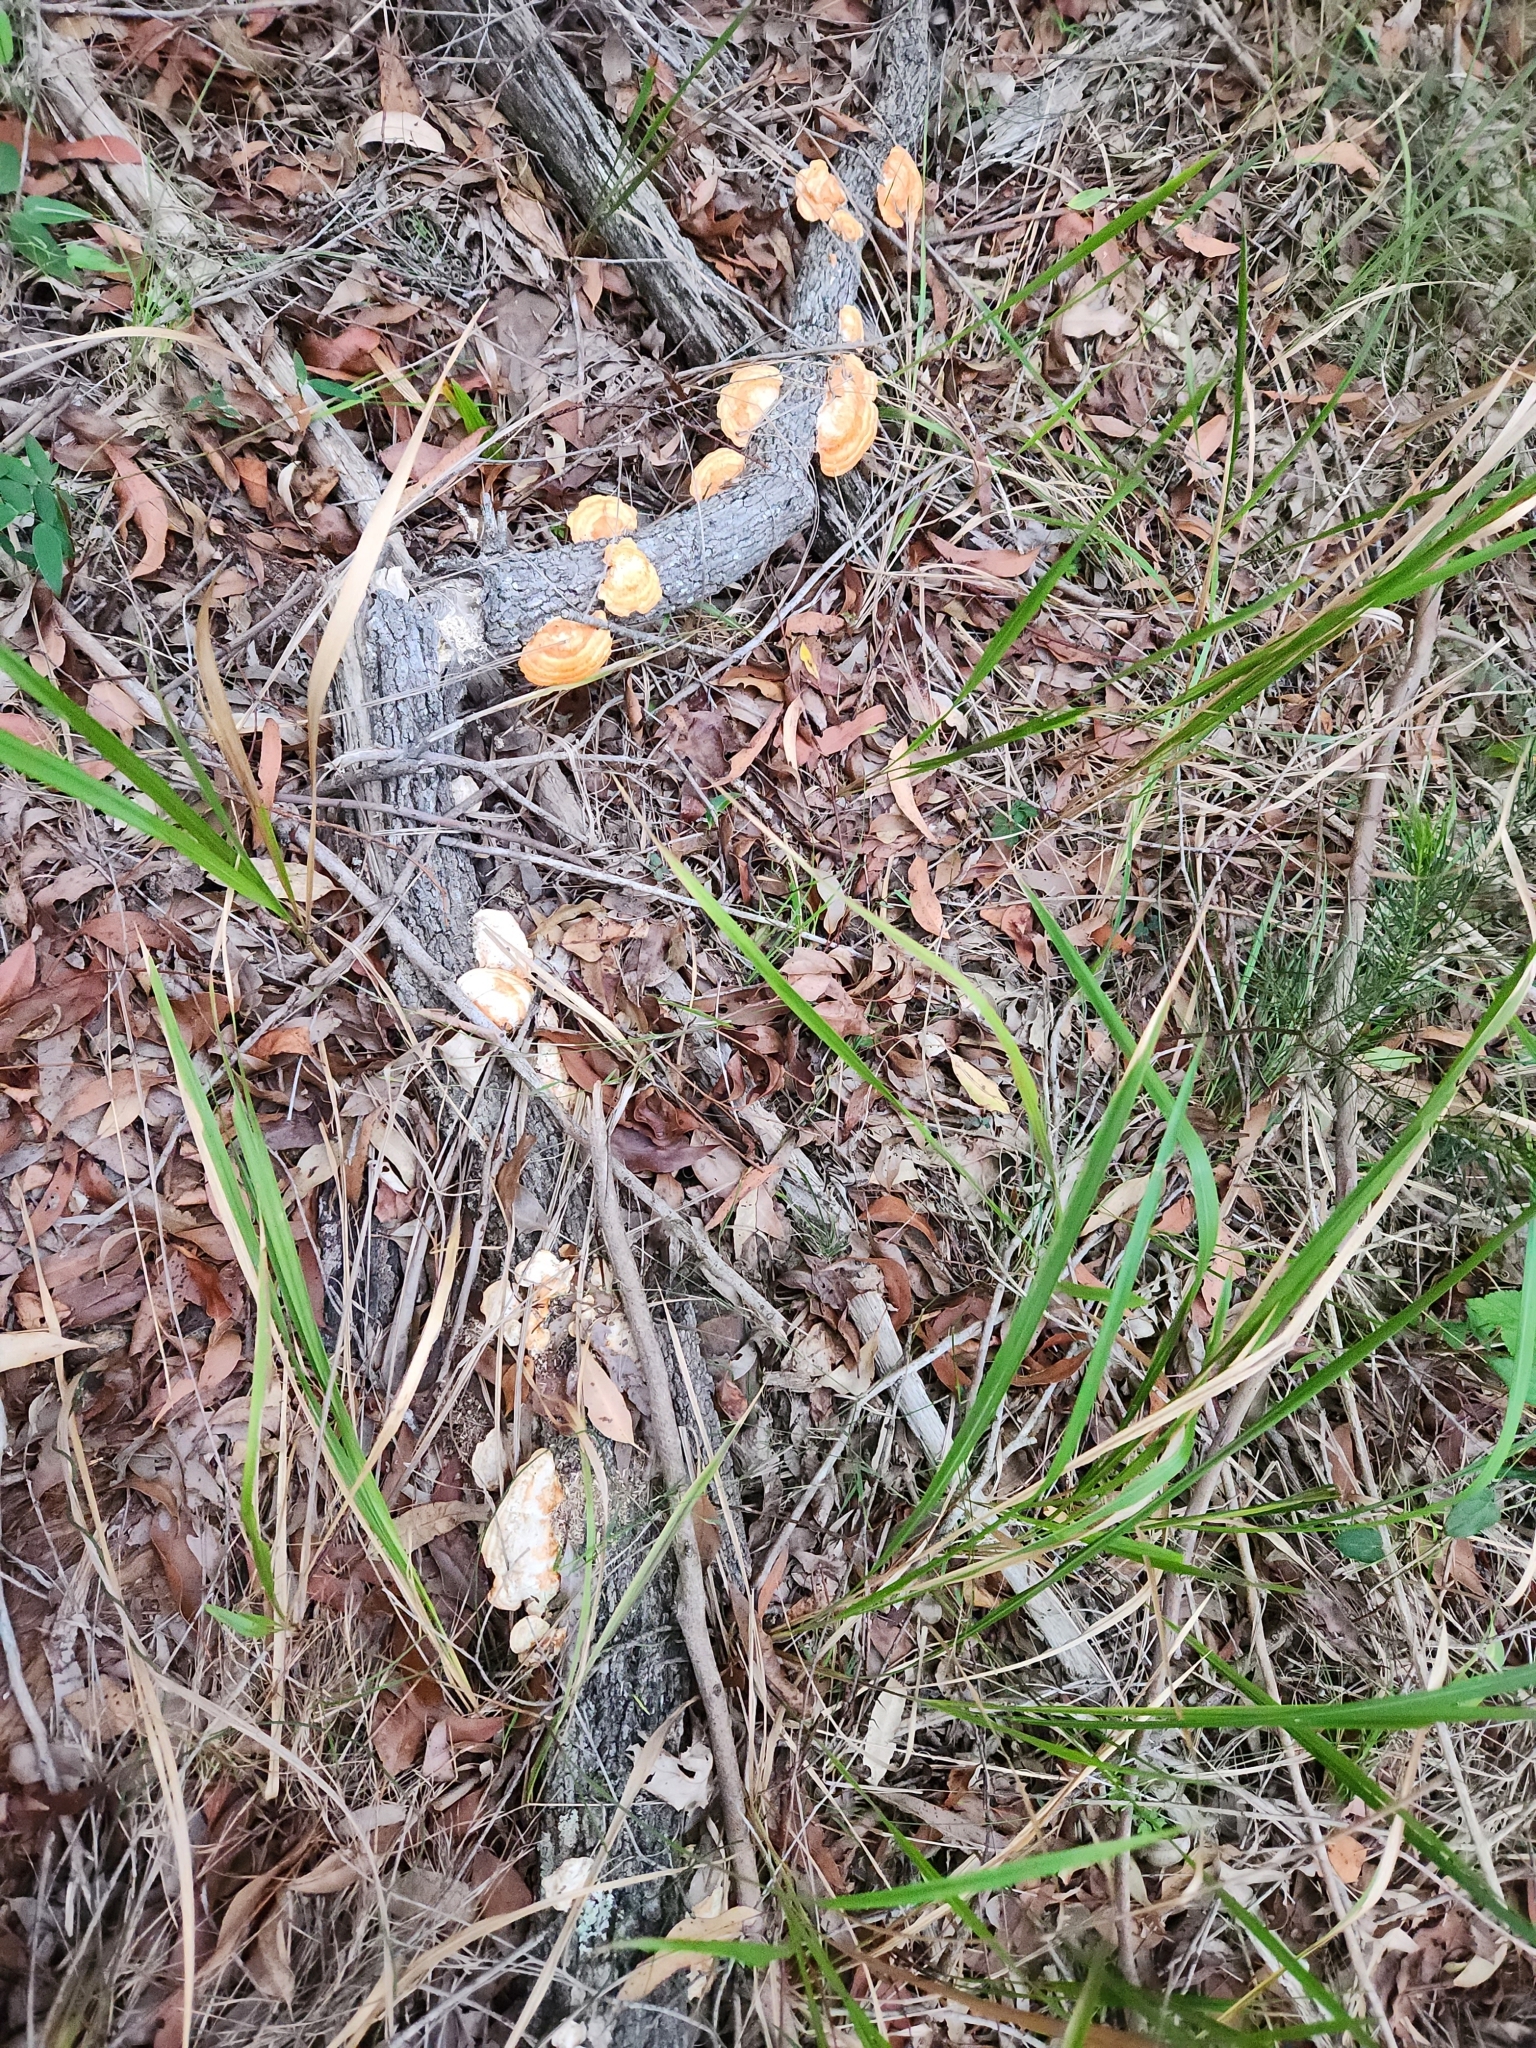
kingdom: Fungi
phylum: Basidiomycota
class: Agaricomycetes
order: Polyporales
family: Polyporaceae
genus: Trametes
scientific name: Trametes coccinea
